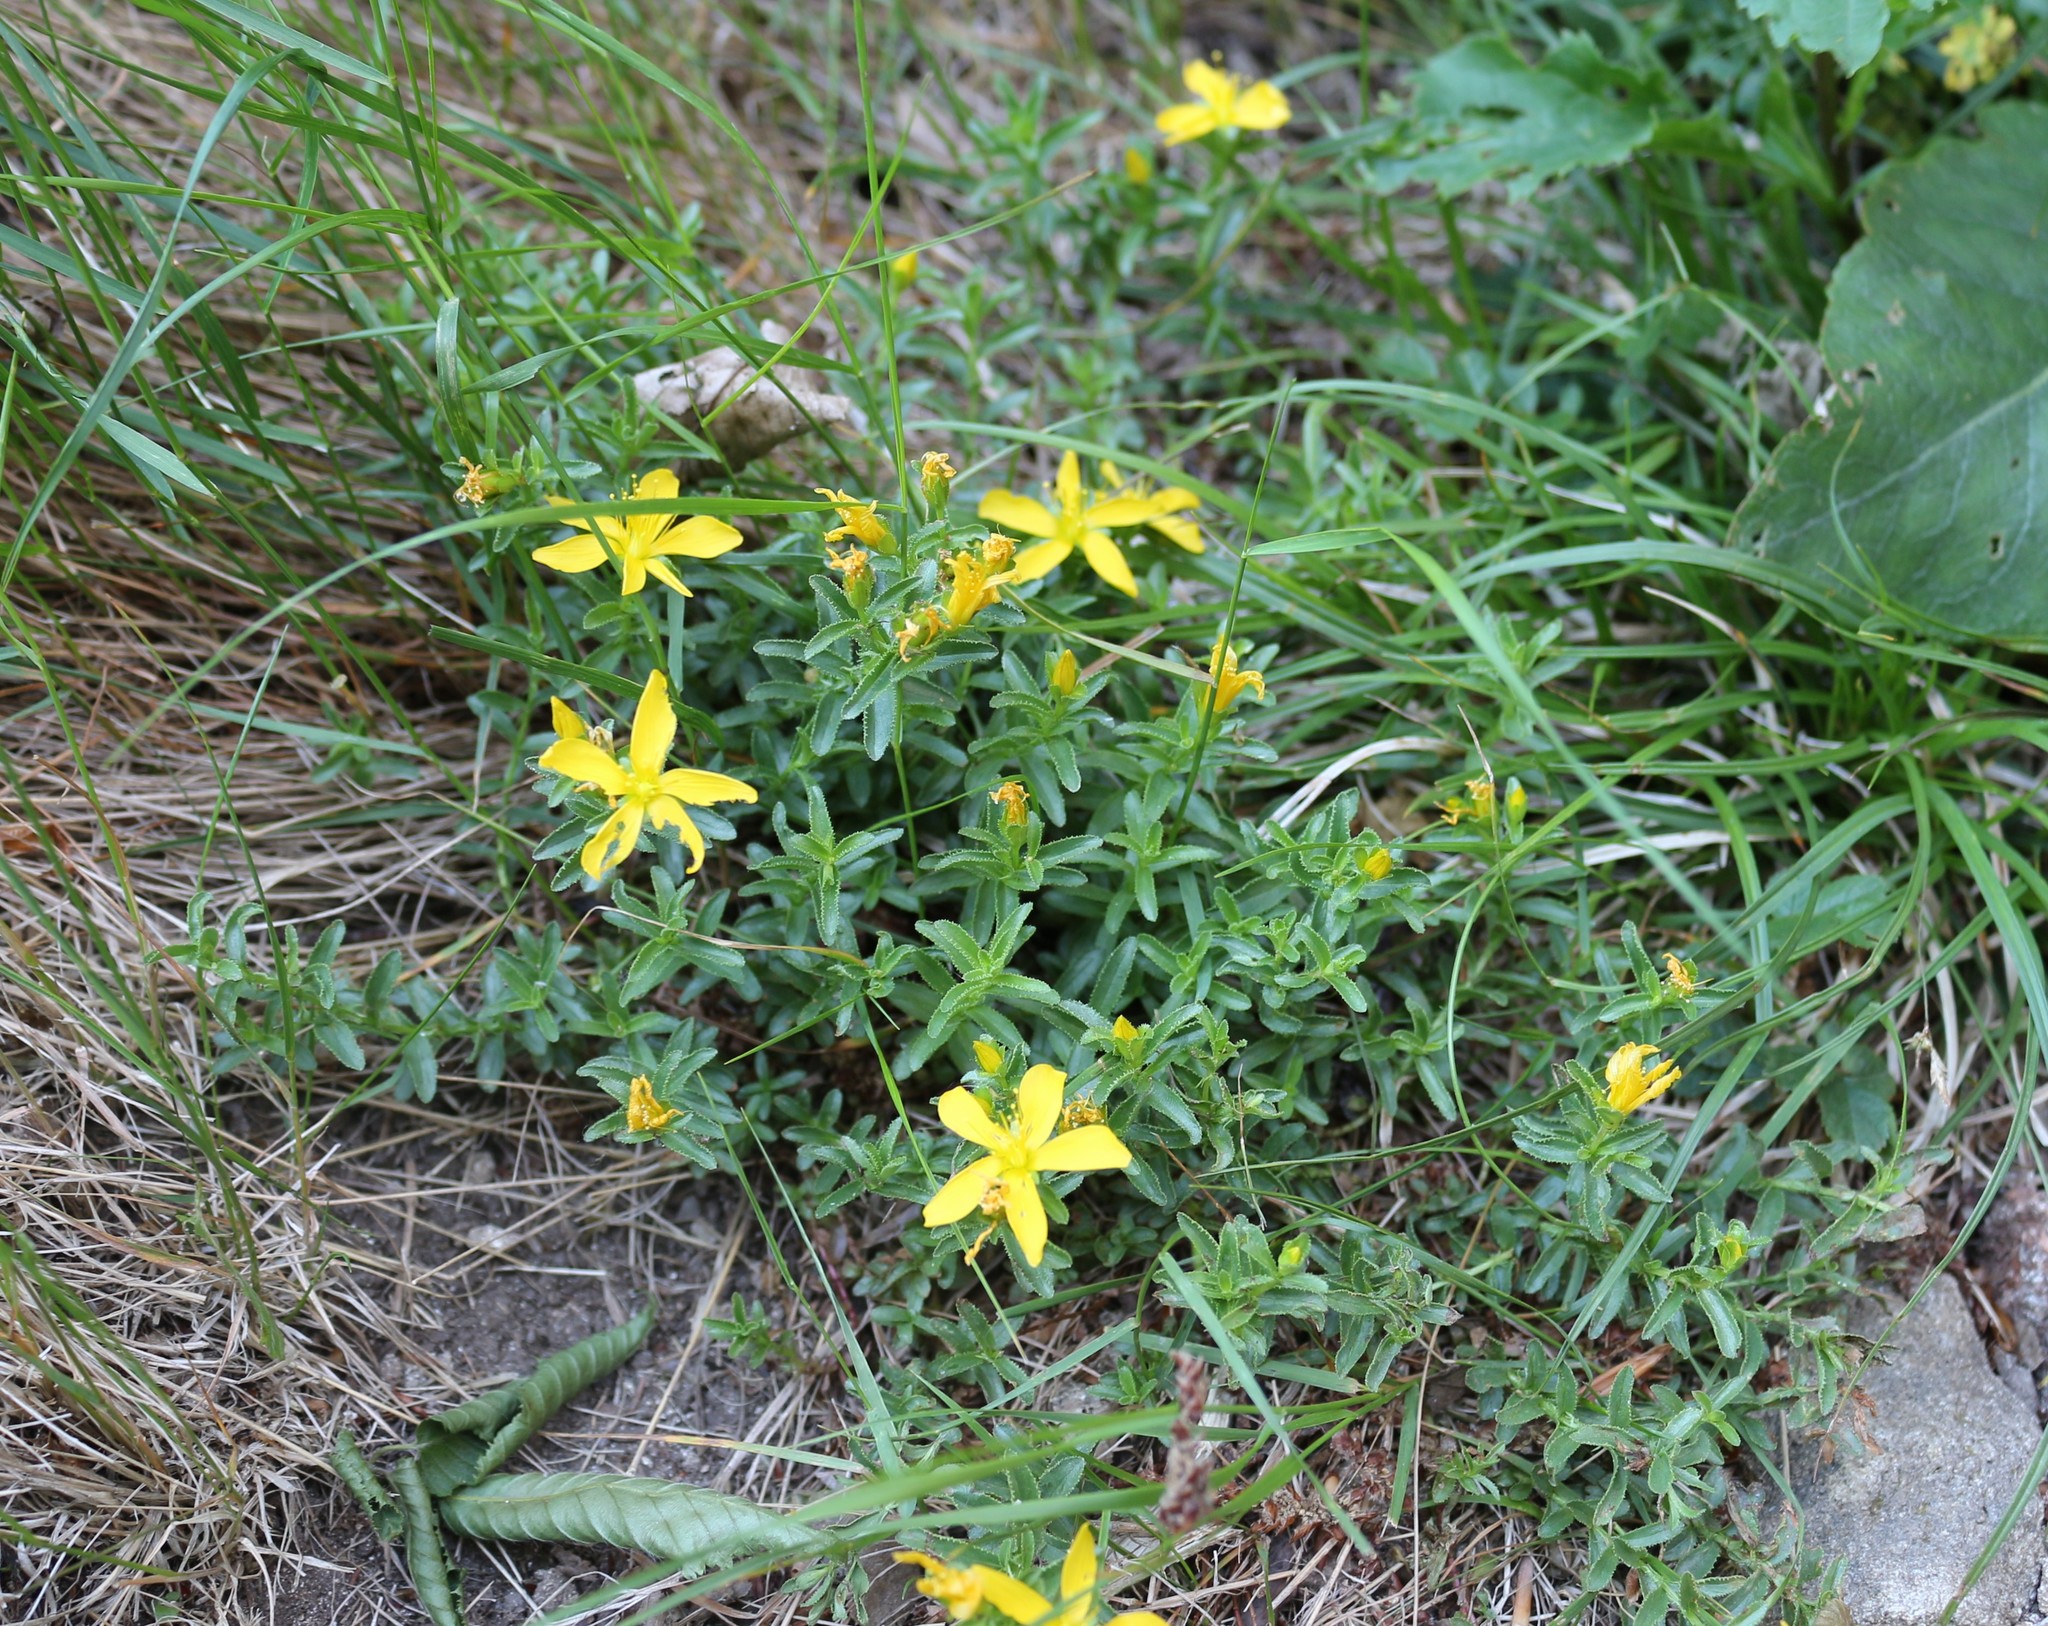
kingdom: Plantae
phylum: Tracheophyta
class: Magnoliopsida
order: Malpighiales
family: Hypericaceae
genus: Hypericum
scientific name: Hypericum orientale
